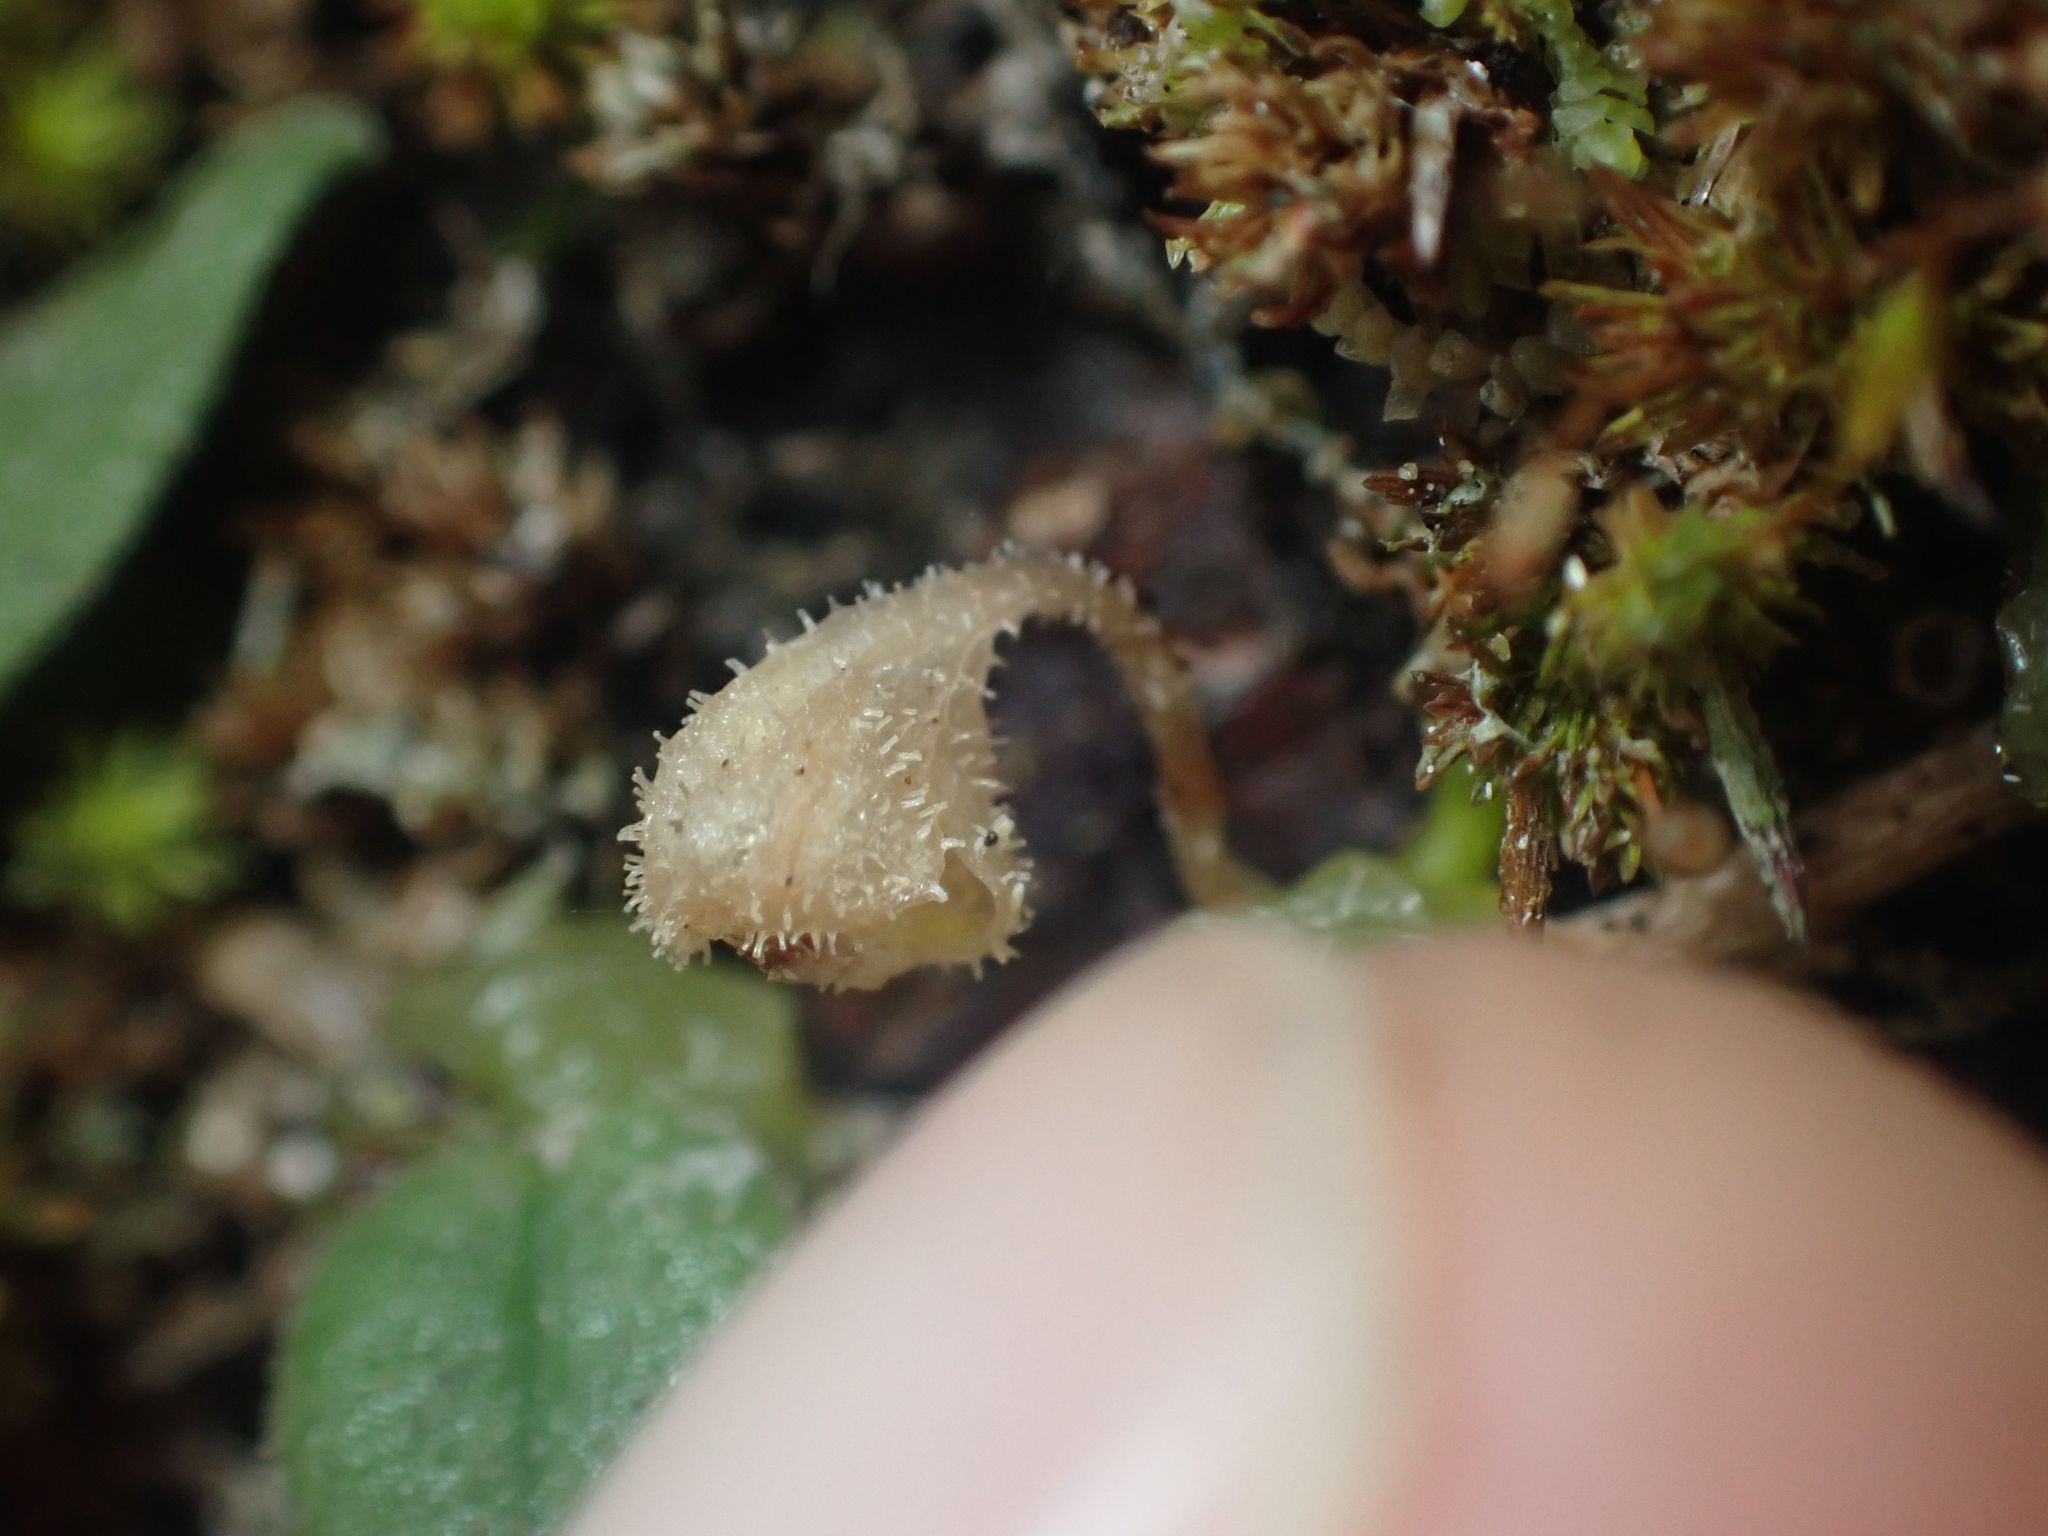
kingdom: Plantae
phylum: Tracheophyta
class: Liliopsida
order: Asparagales
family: Orchidaceae
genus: Bulbophyllum
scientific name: Bulbophyllum pygmaeum
